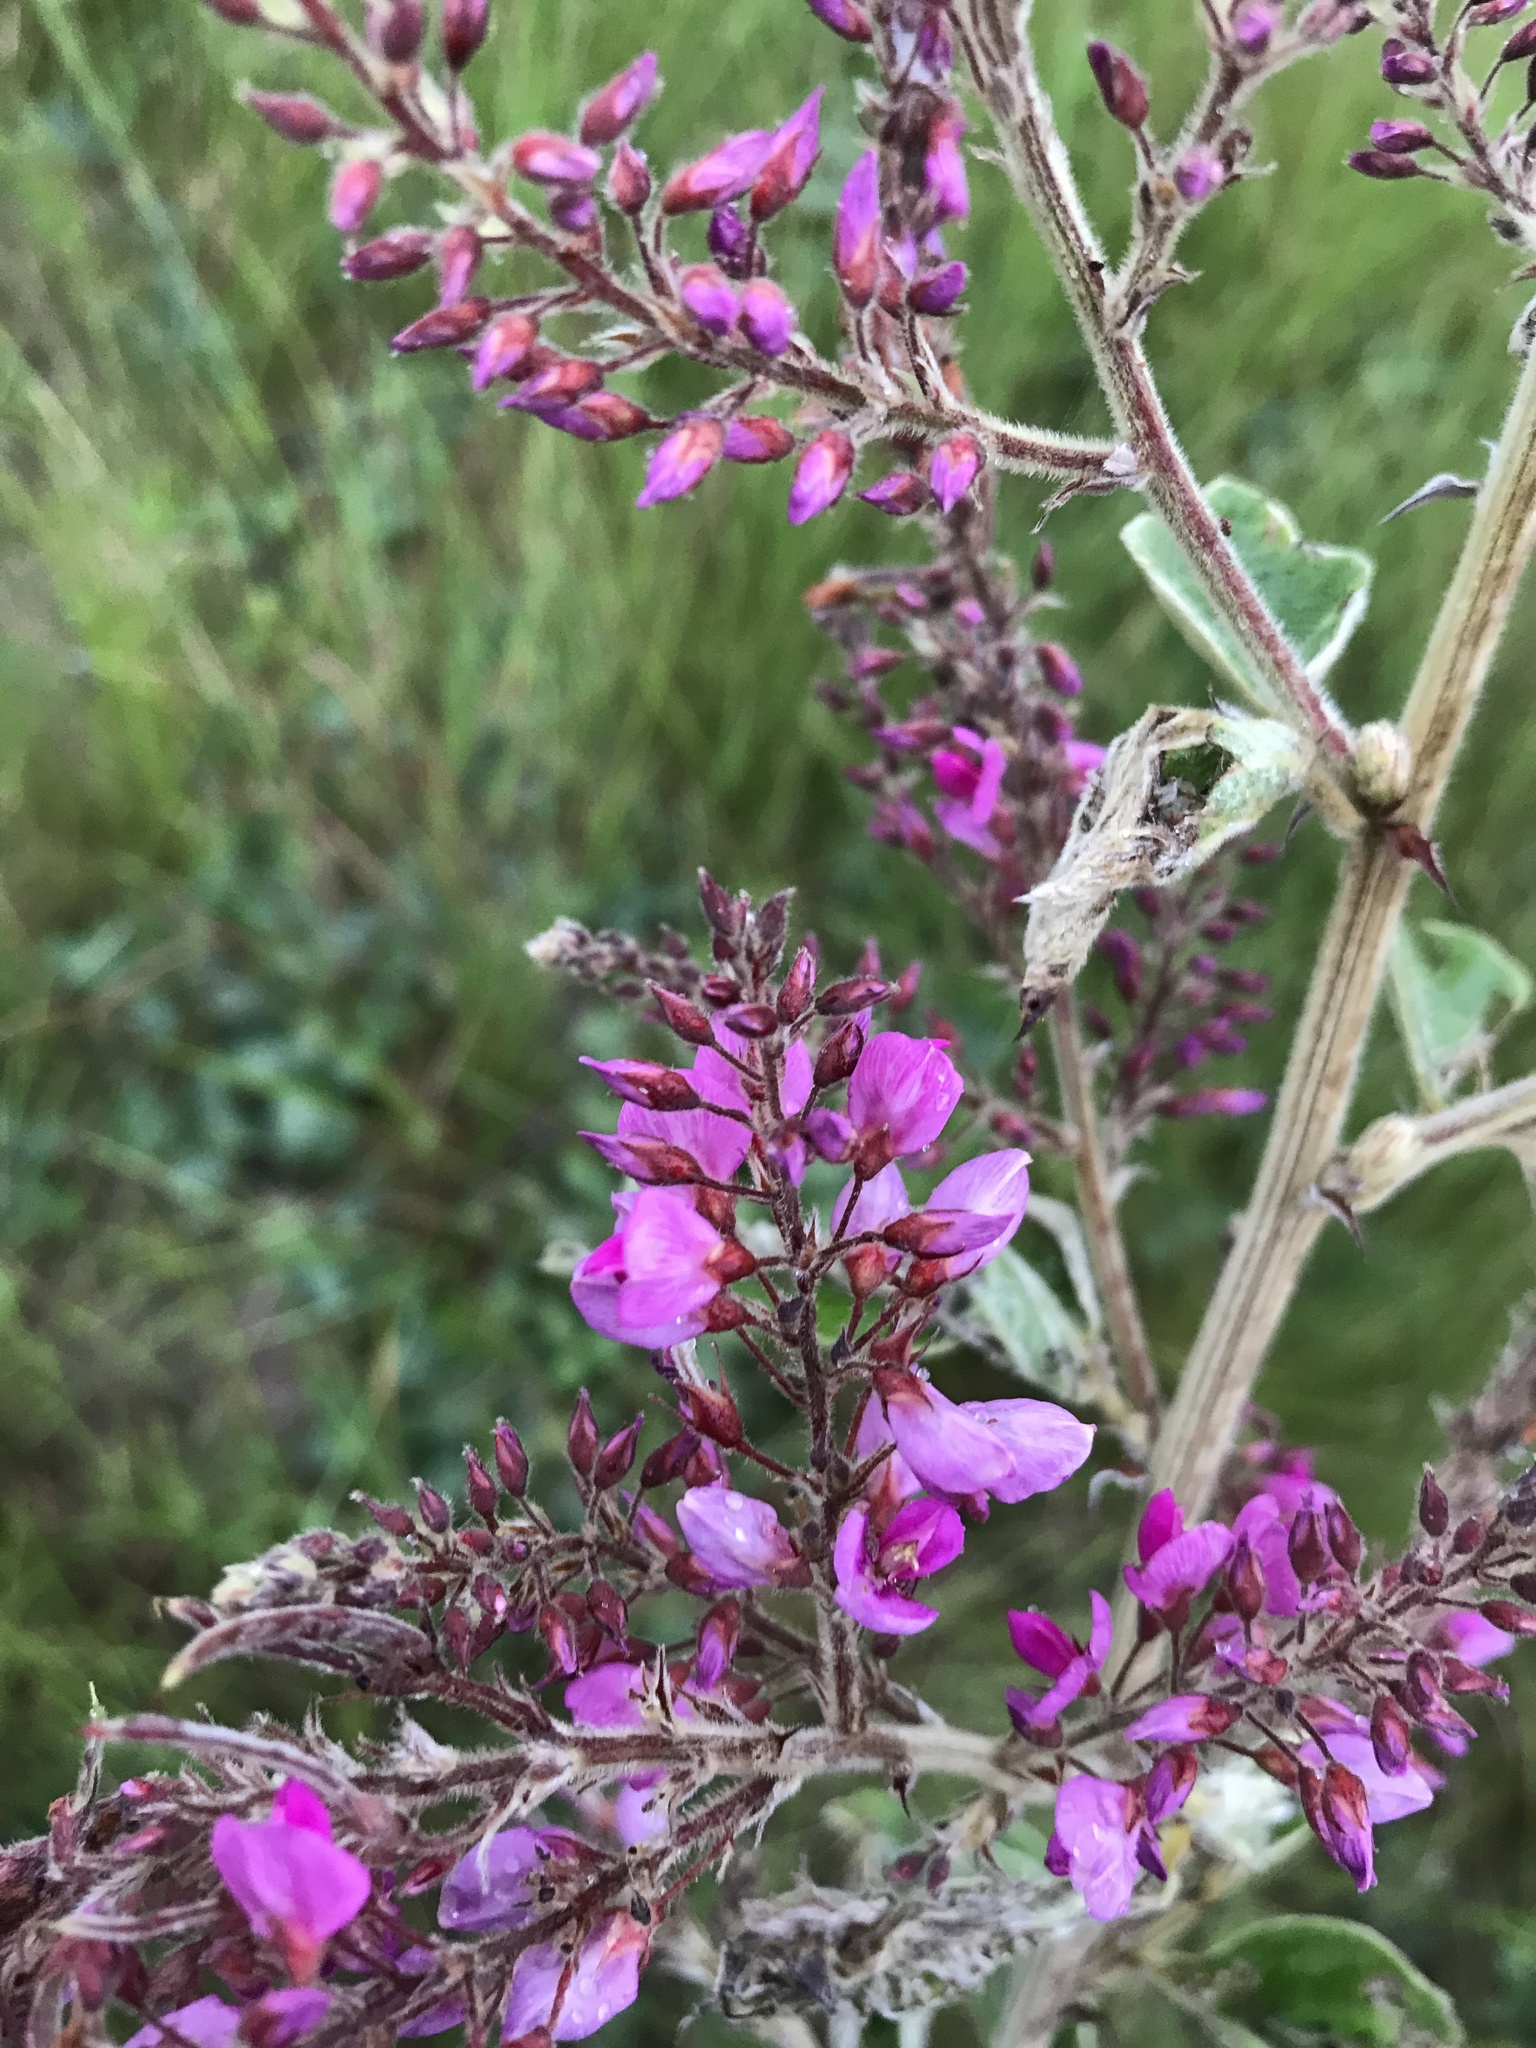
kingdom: Plantae
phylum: Tracheophyta
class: Magnoliopsida
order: Fabales
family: Fabaceae
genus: Pseudarthria
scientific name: Pseudarthria hookeri
